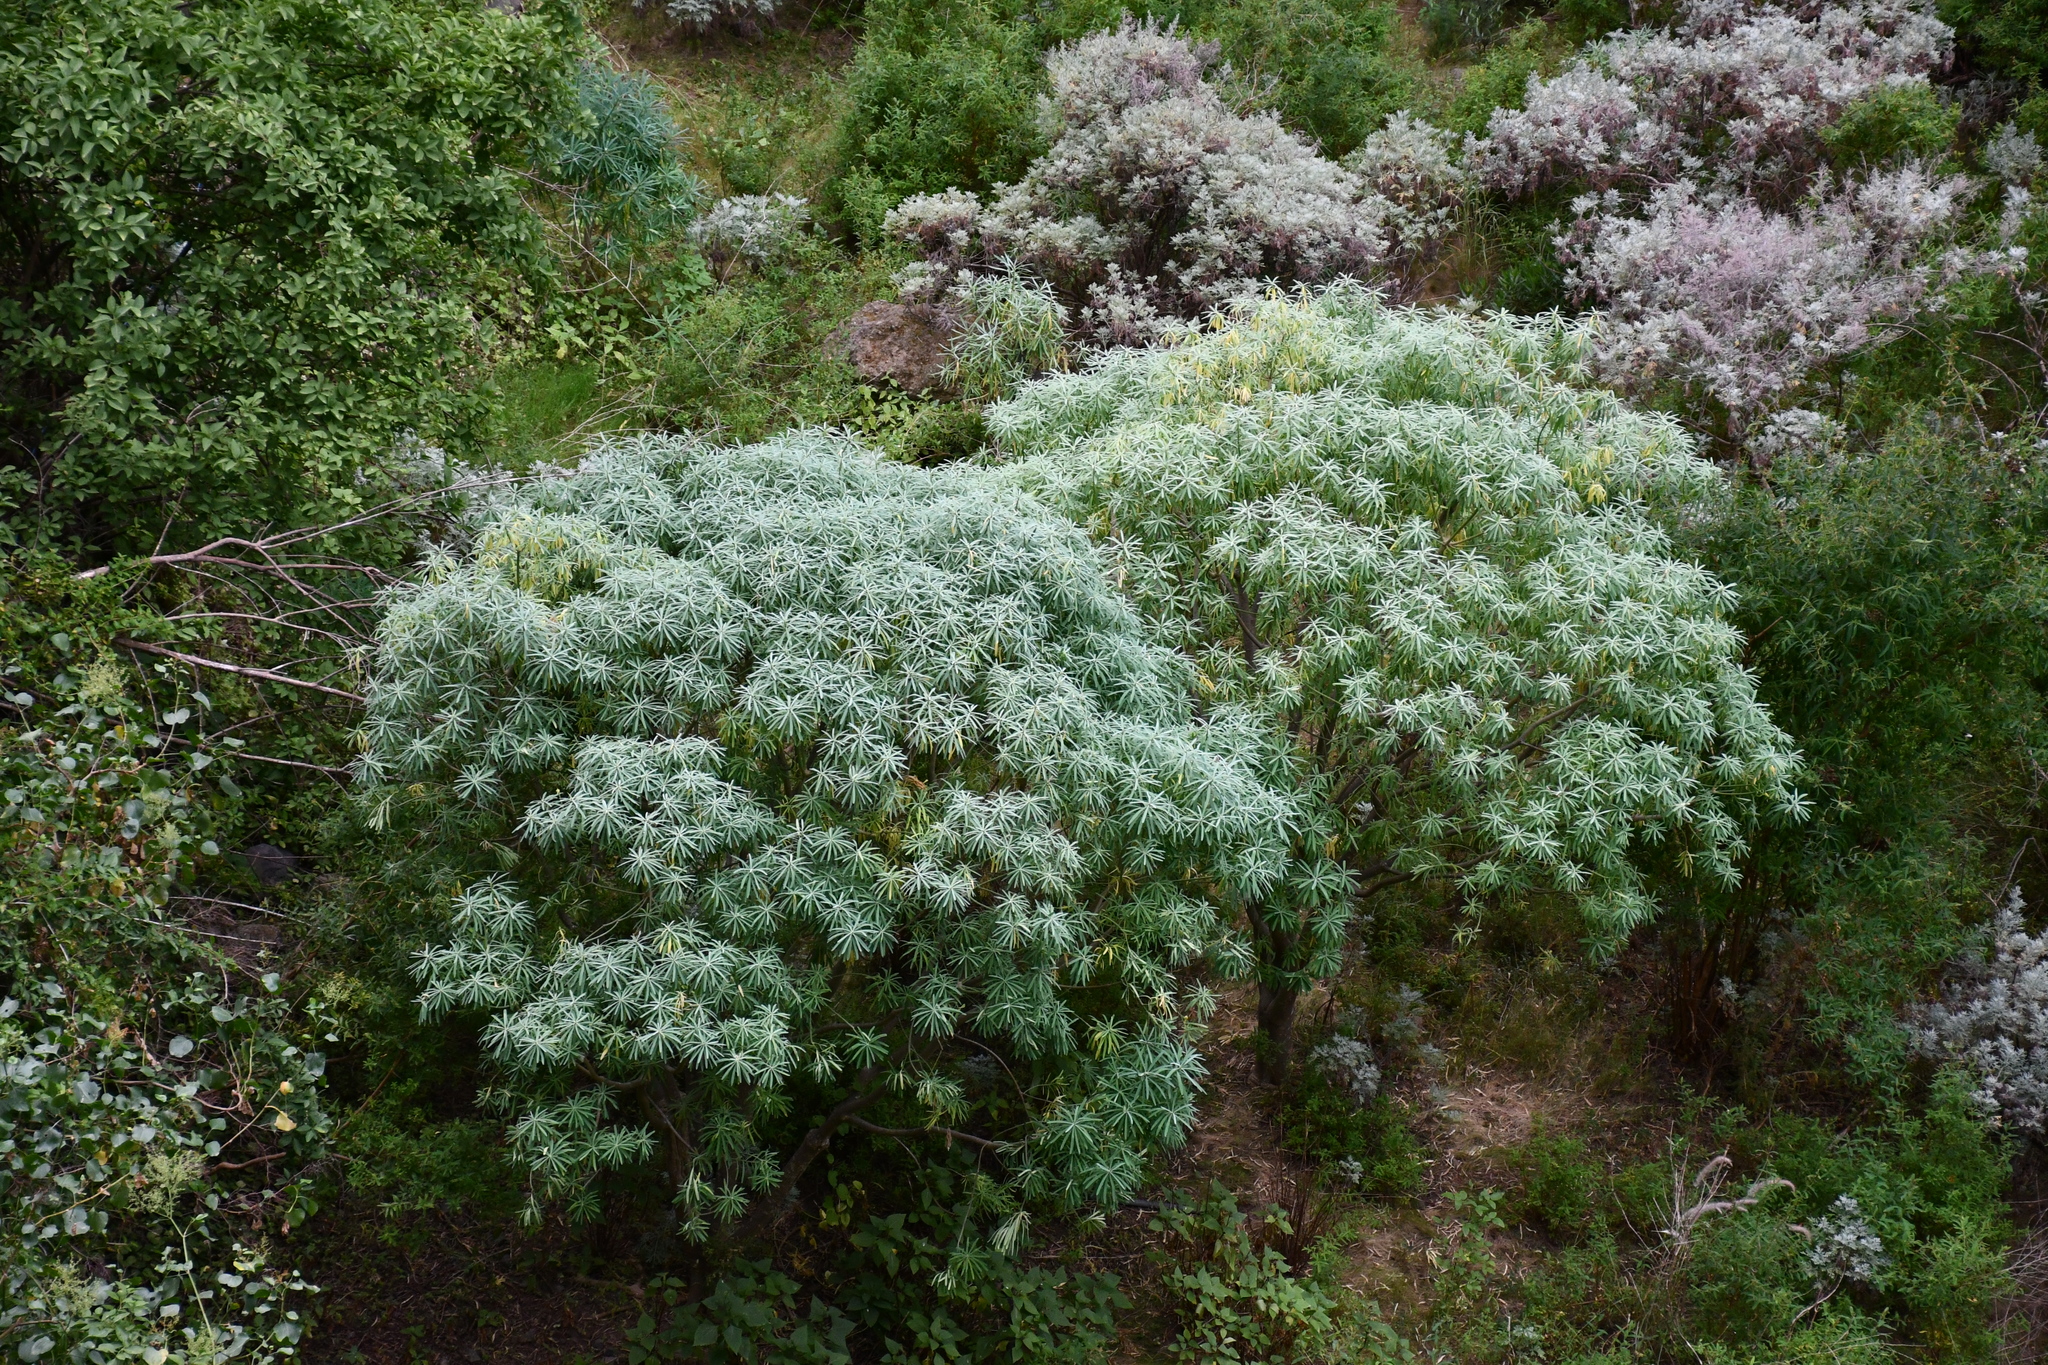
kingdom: Plantae
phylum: Tracheophyta
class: Magnoliopsida
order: Malpighiales
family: Euphorbiaceae
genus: Euphorbia
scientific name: Euphorbia lamarckii
